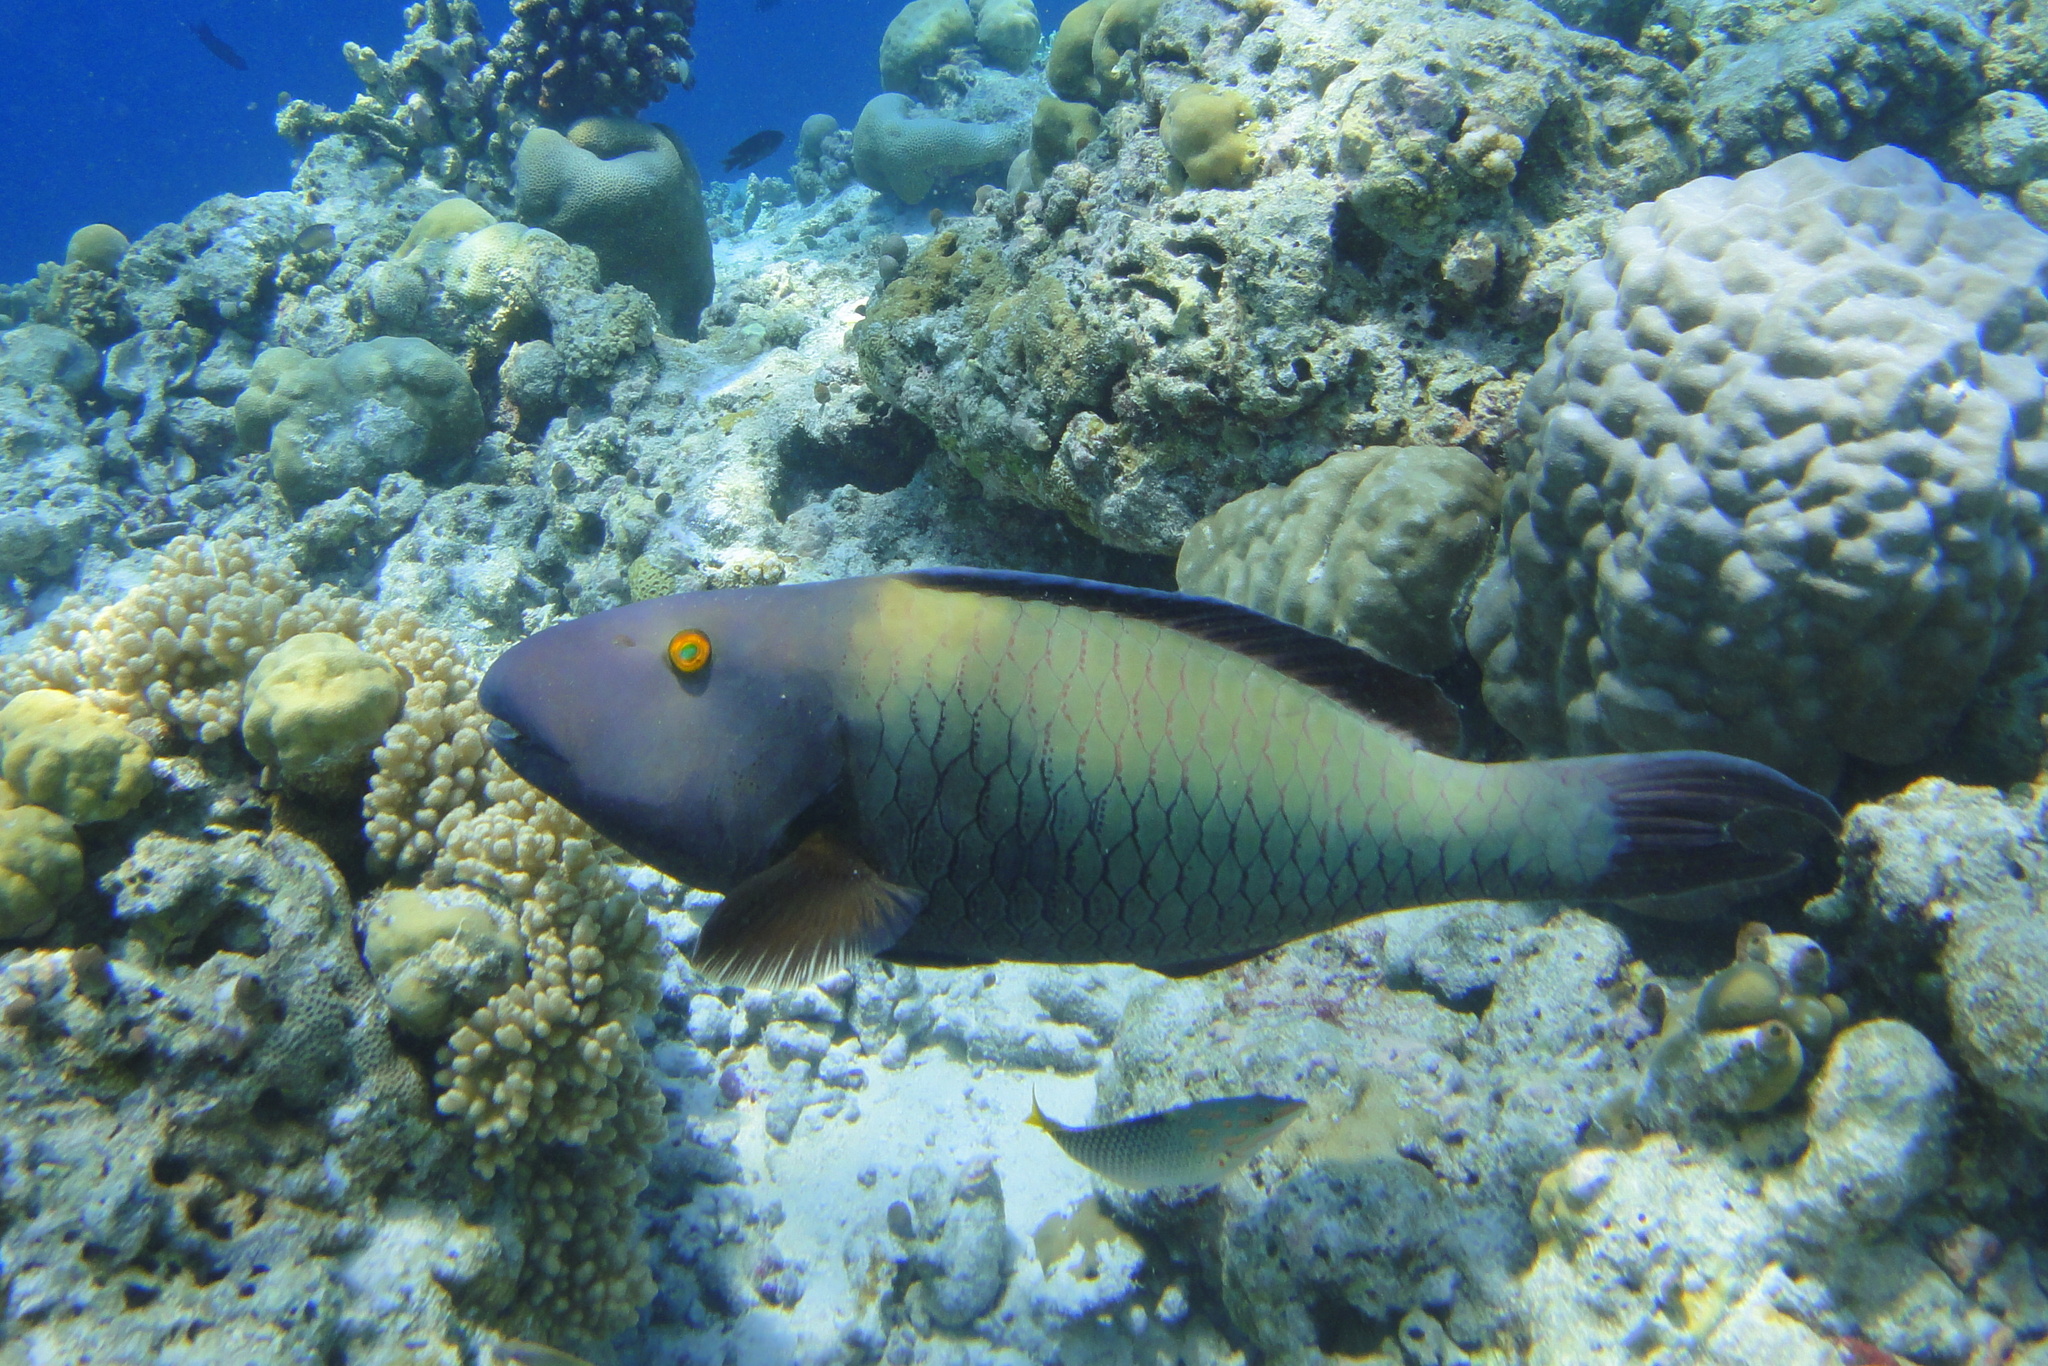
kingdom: Animalia
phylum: Chordata
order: Perciformes
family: Scaridae
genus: Cetoscarus
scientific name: Cetoscarus ocellatus
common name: Bicolor parrotfish
